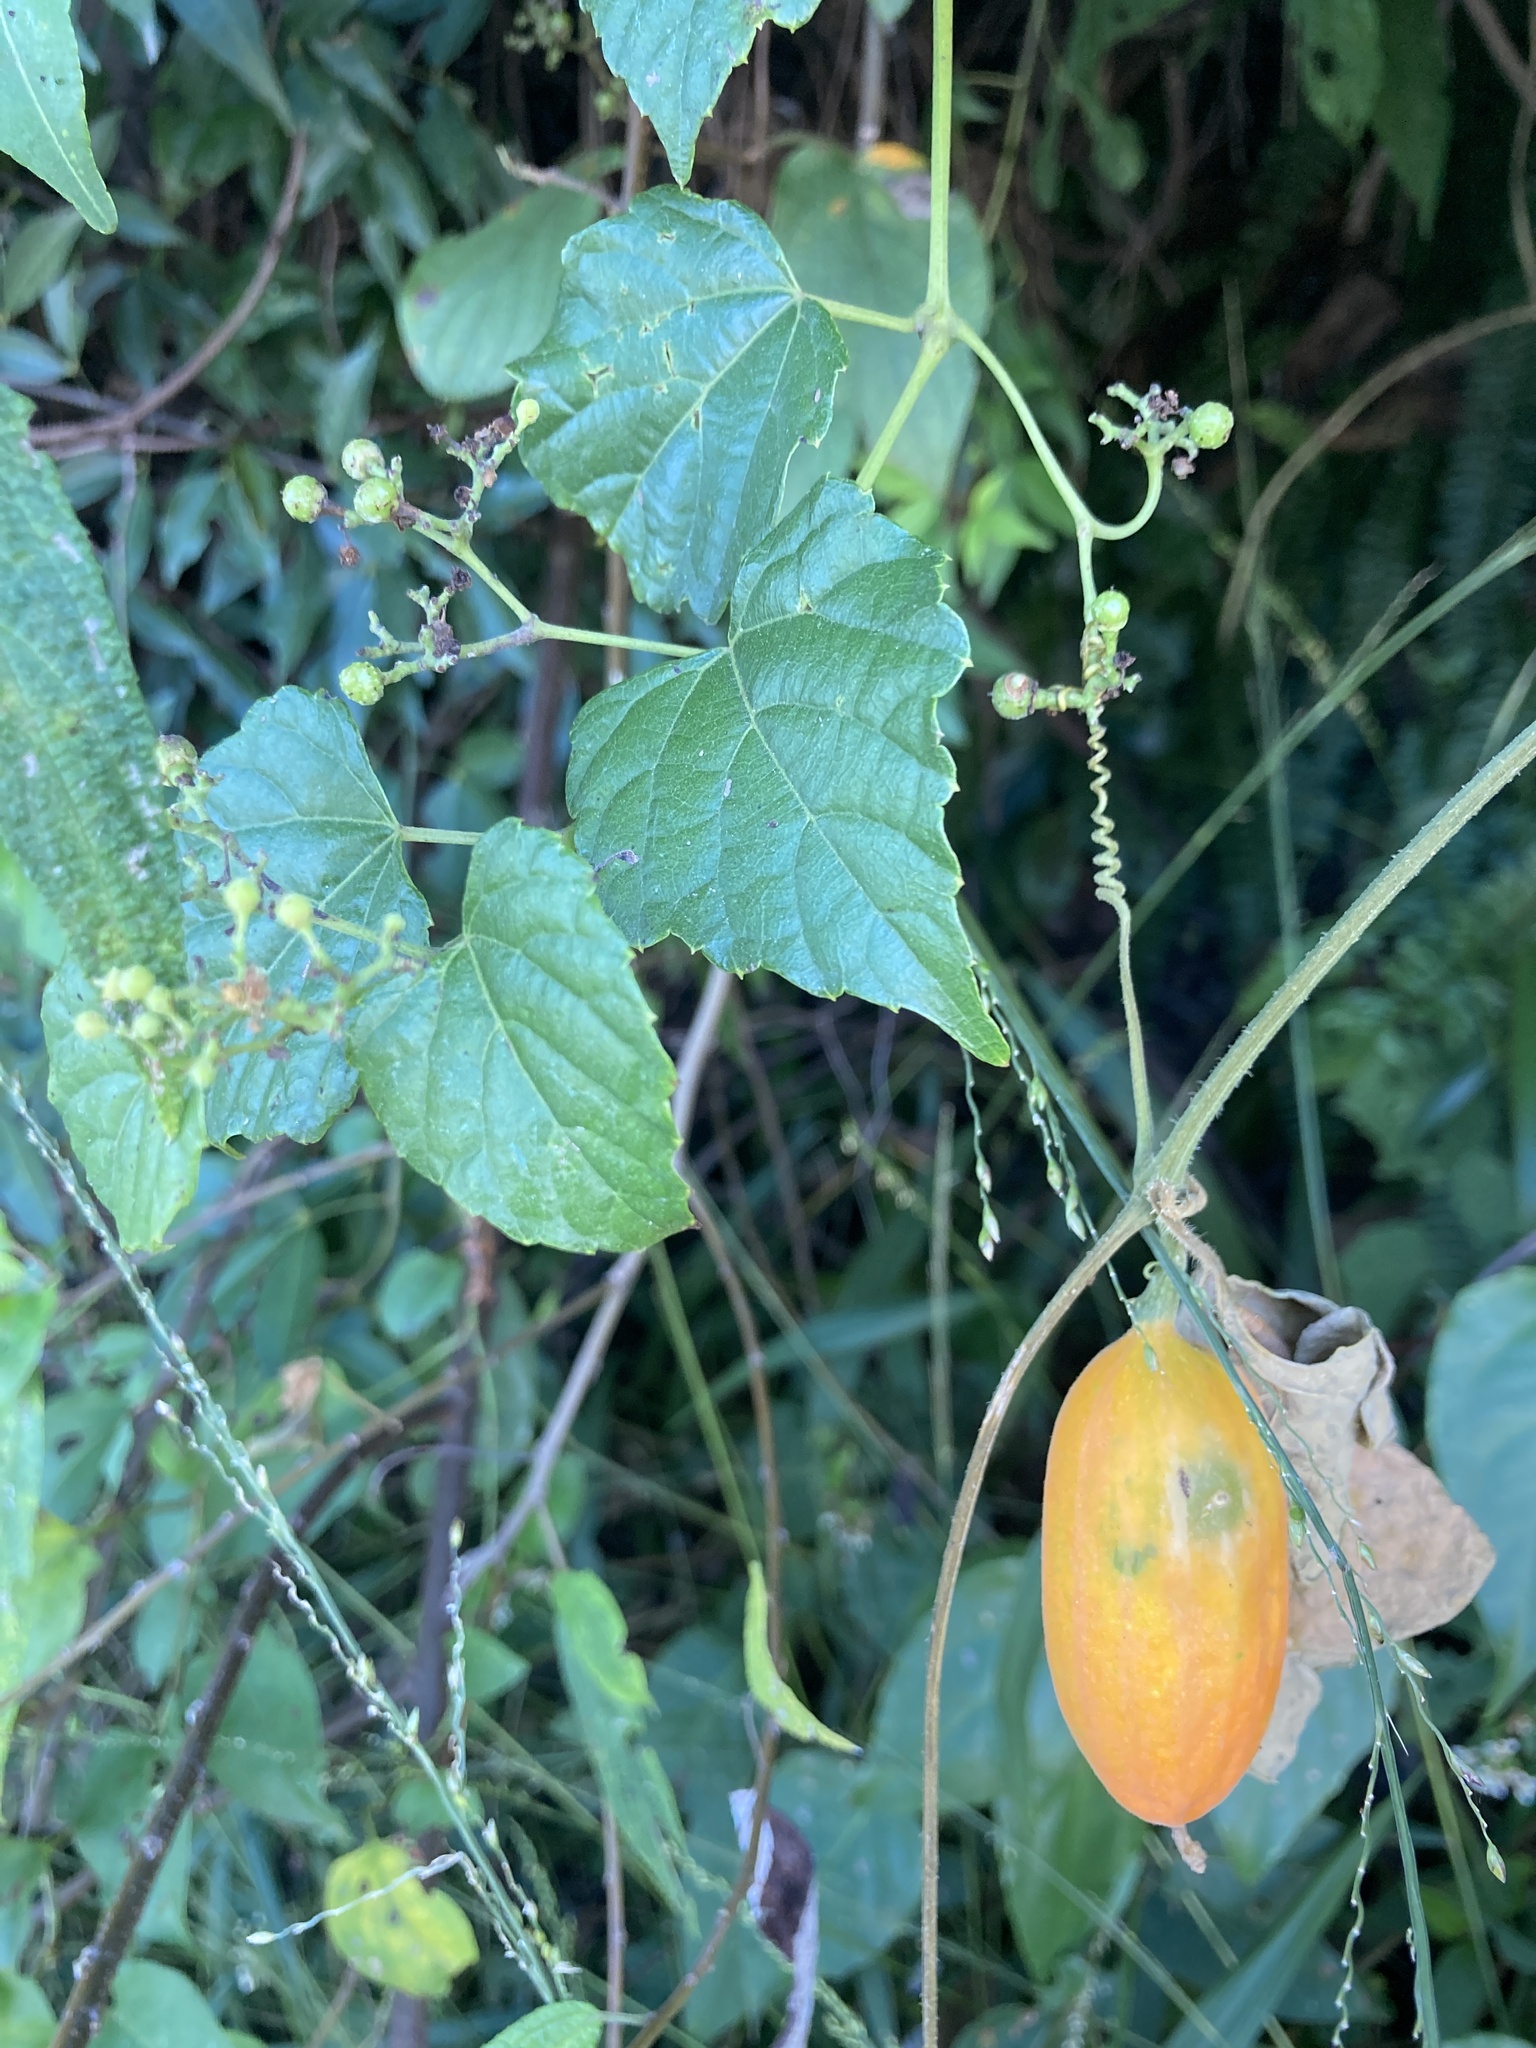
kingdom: Plantae
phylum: Tracheophyta
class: Magnoliopsida
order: Cucurbitales
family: Cucurbitaceae
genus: Trichosanthes
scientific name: Trichosanthes cucumeroides
